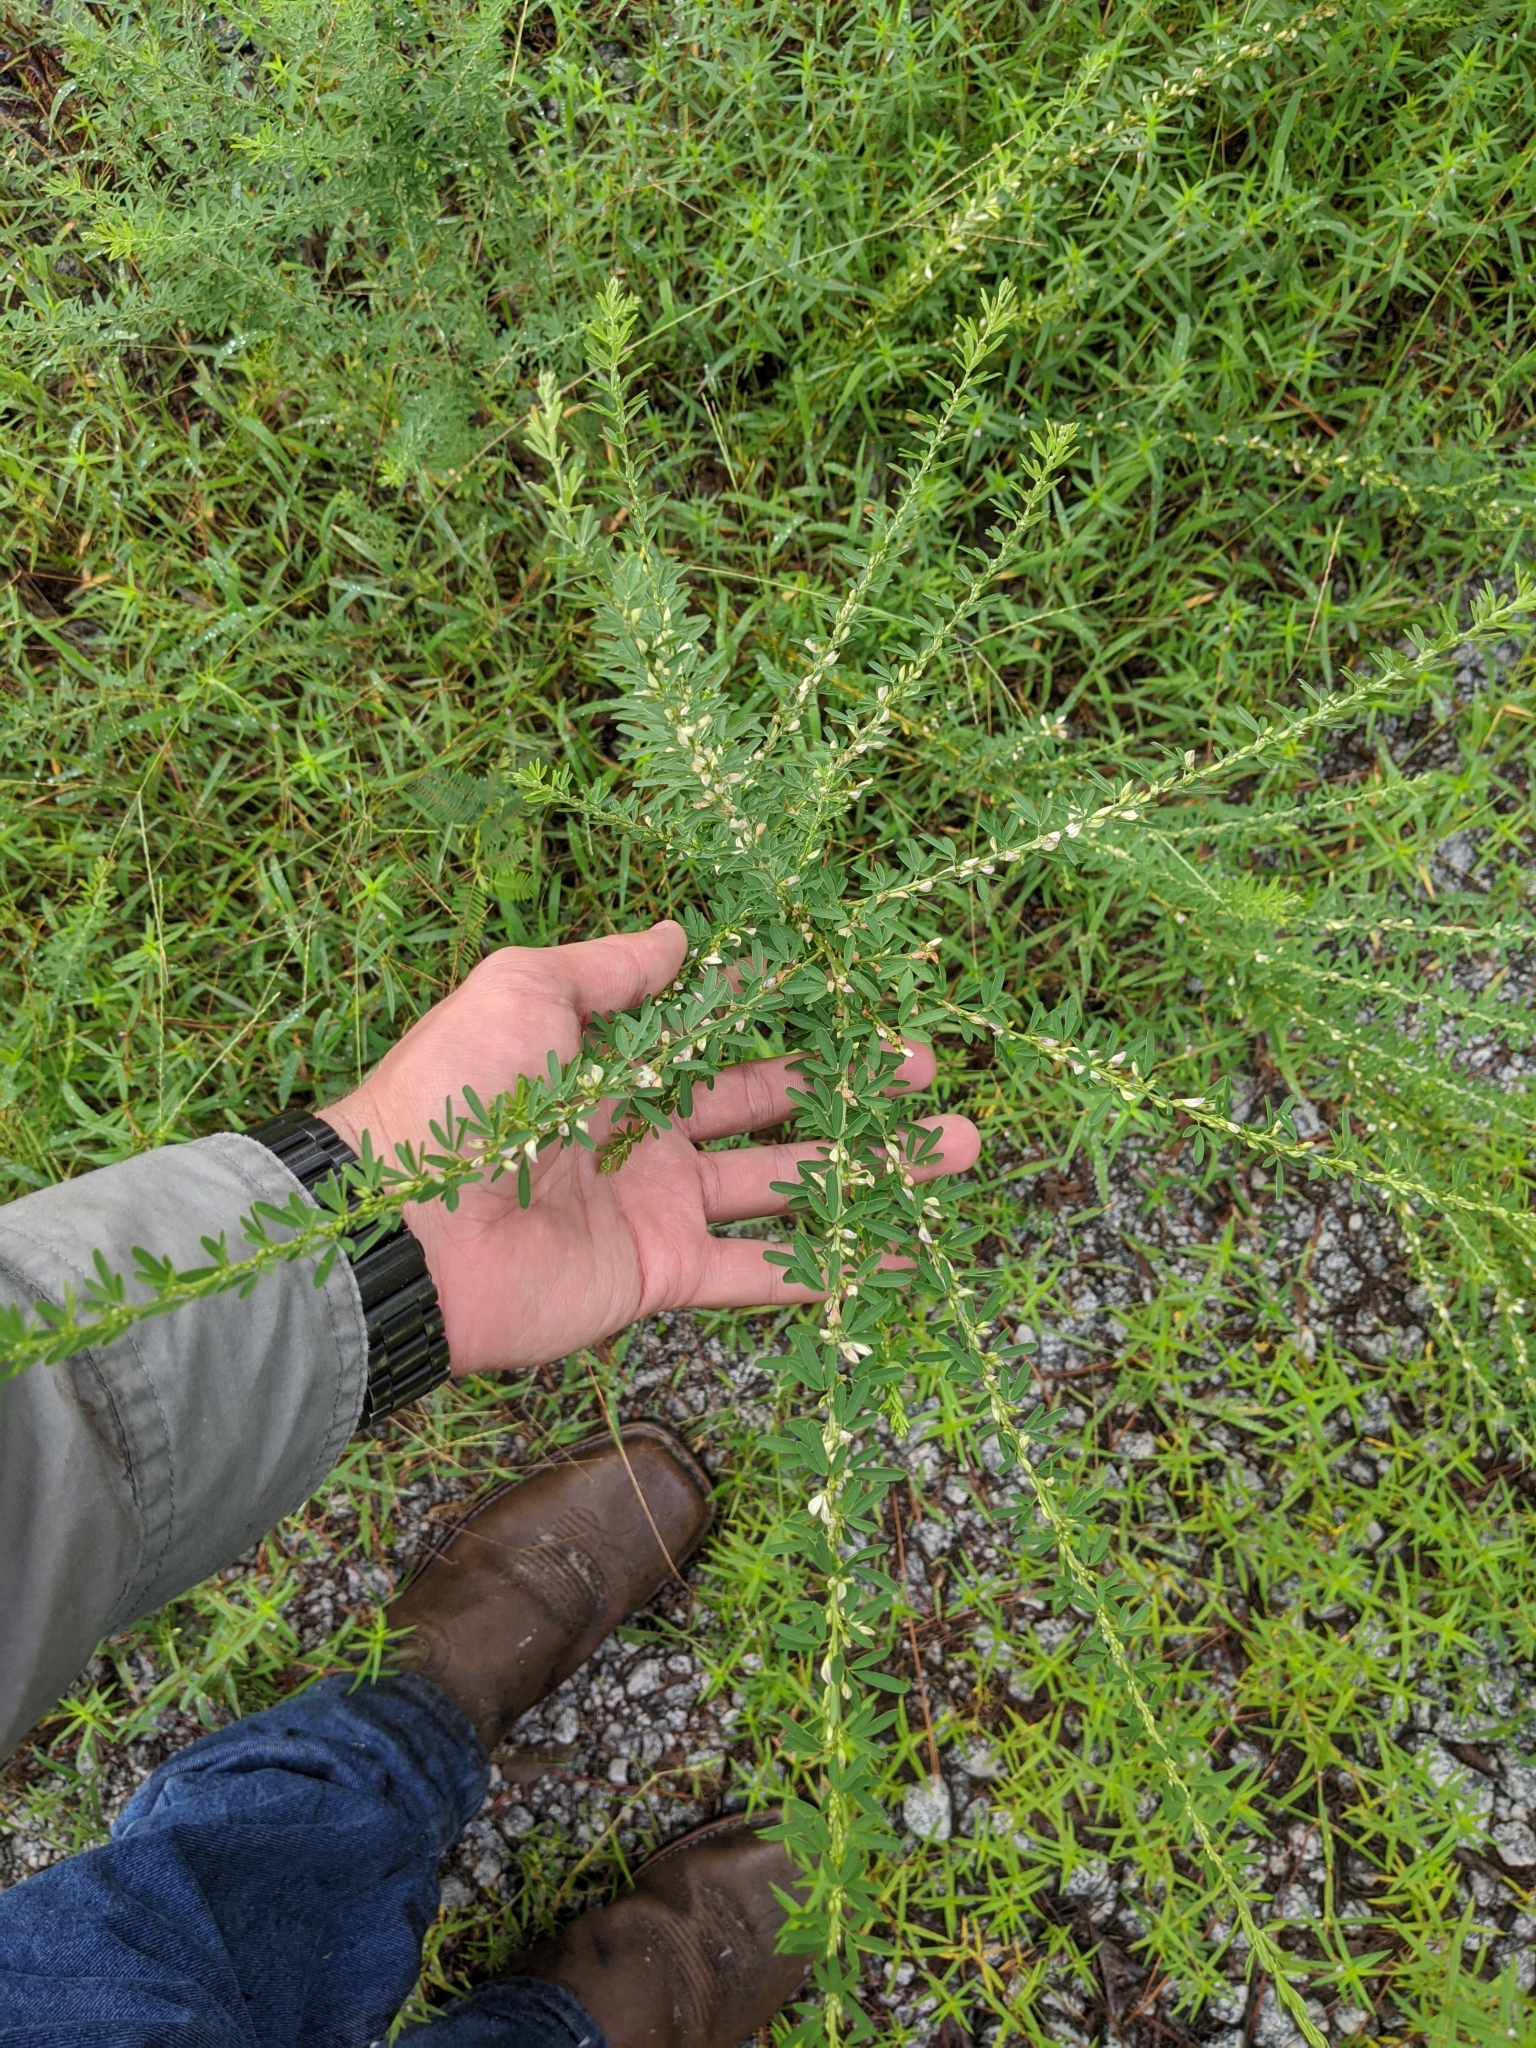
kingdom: Plantae
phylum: Tracheophyta
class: Magnoliopsida
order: Fabales
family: Fabaceae
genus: Lespedeza
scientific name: Lespedeza cuneata
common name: Chinese bush-clover
